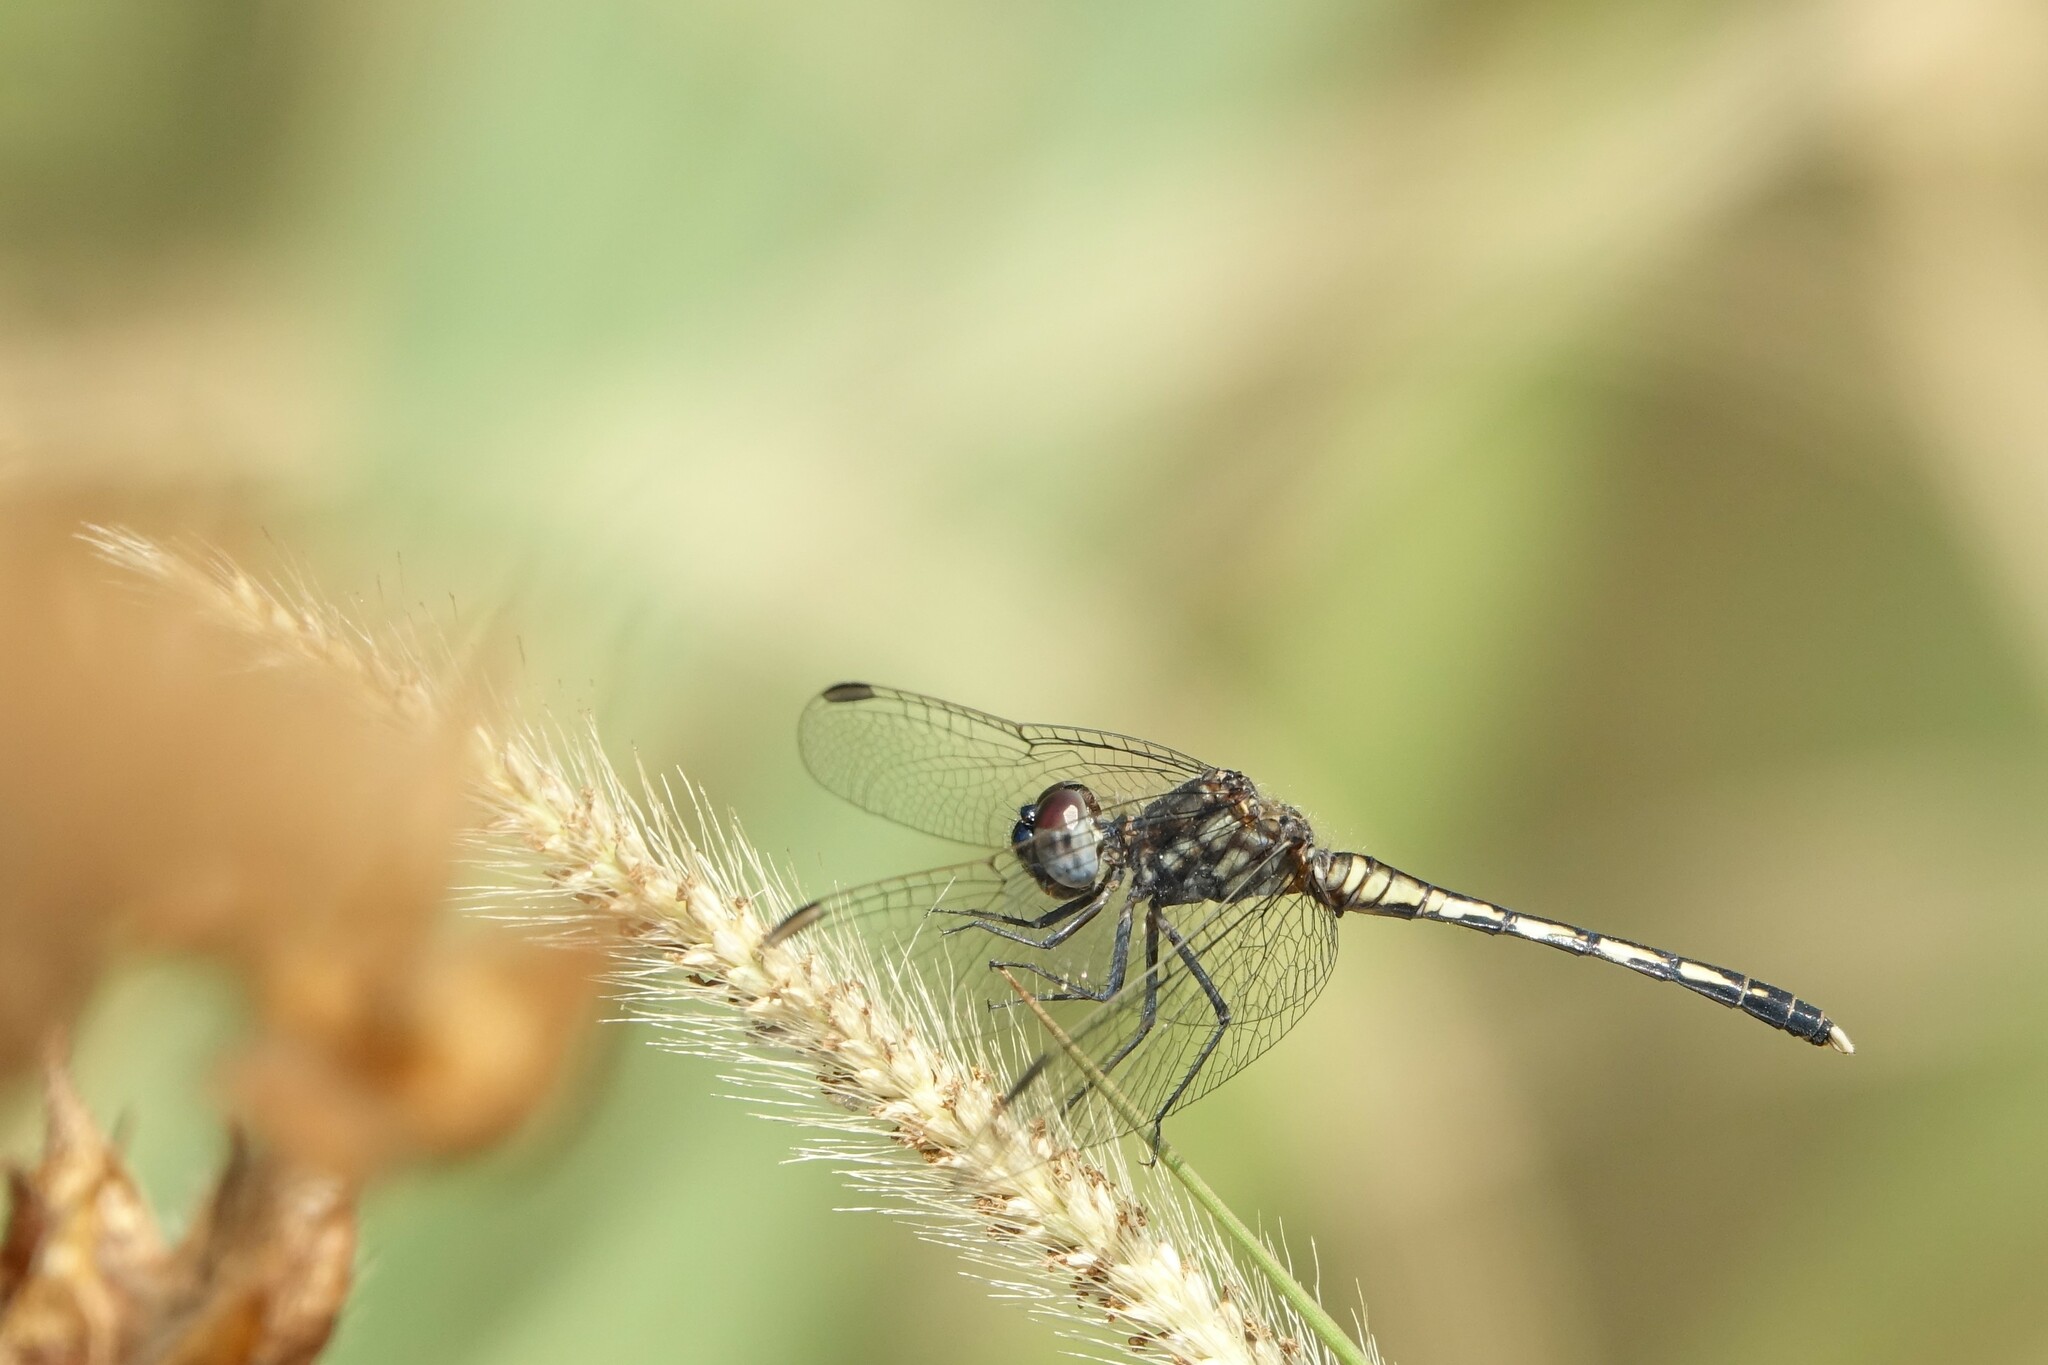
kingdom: Animalia
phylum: Arthropoda
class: Insecta
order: Odonata
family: Libellulidae
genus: Diplacodes
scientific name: Diplacodes lefebvrii
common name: Black percher
